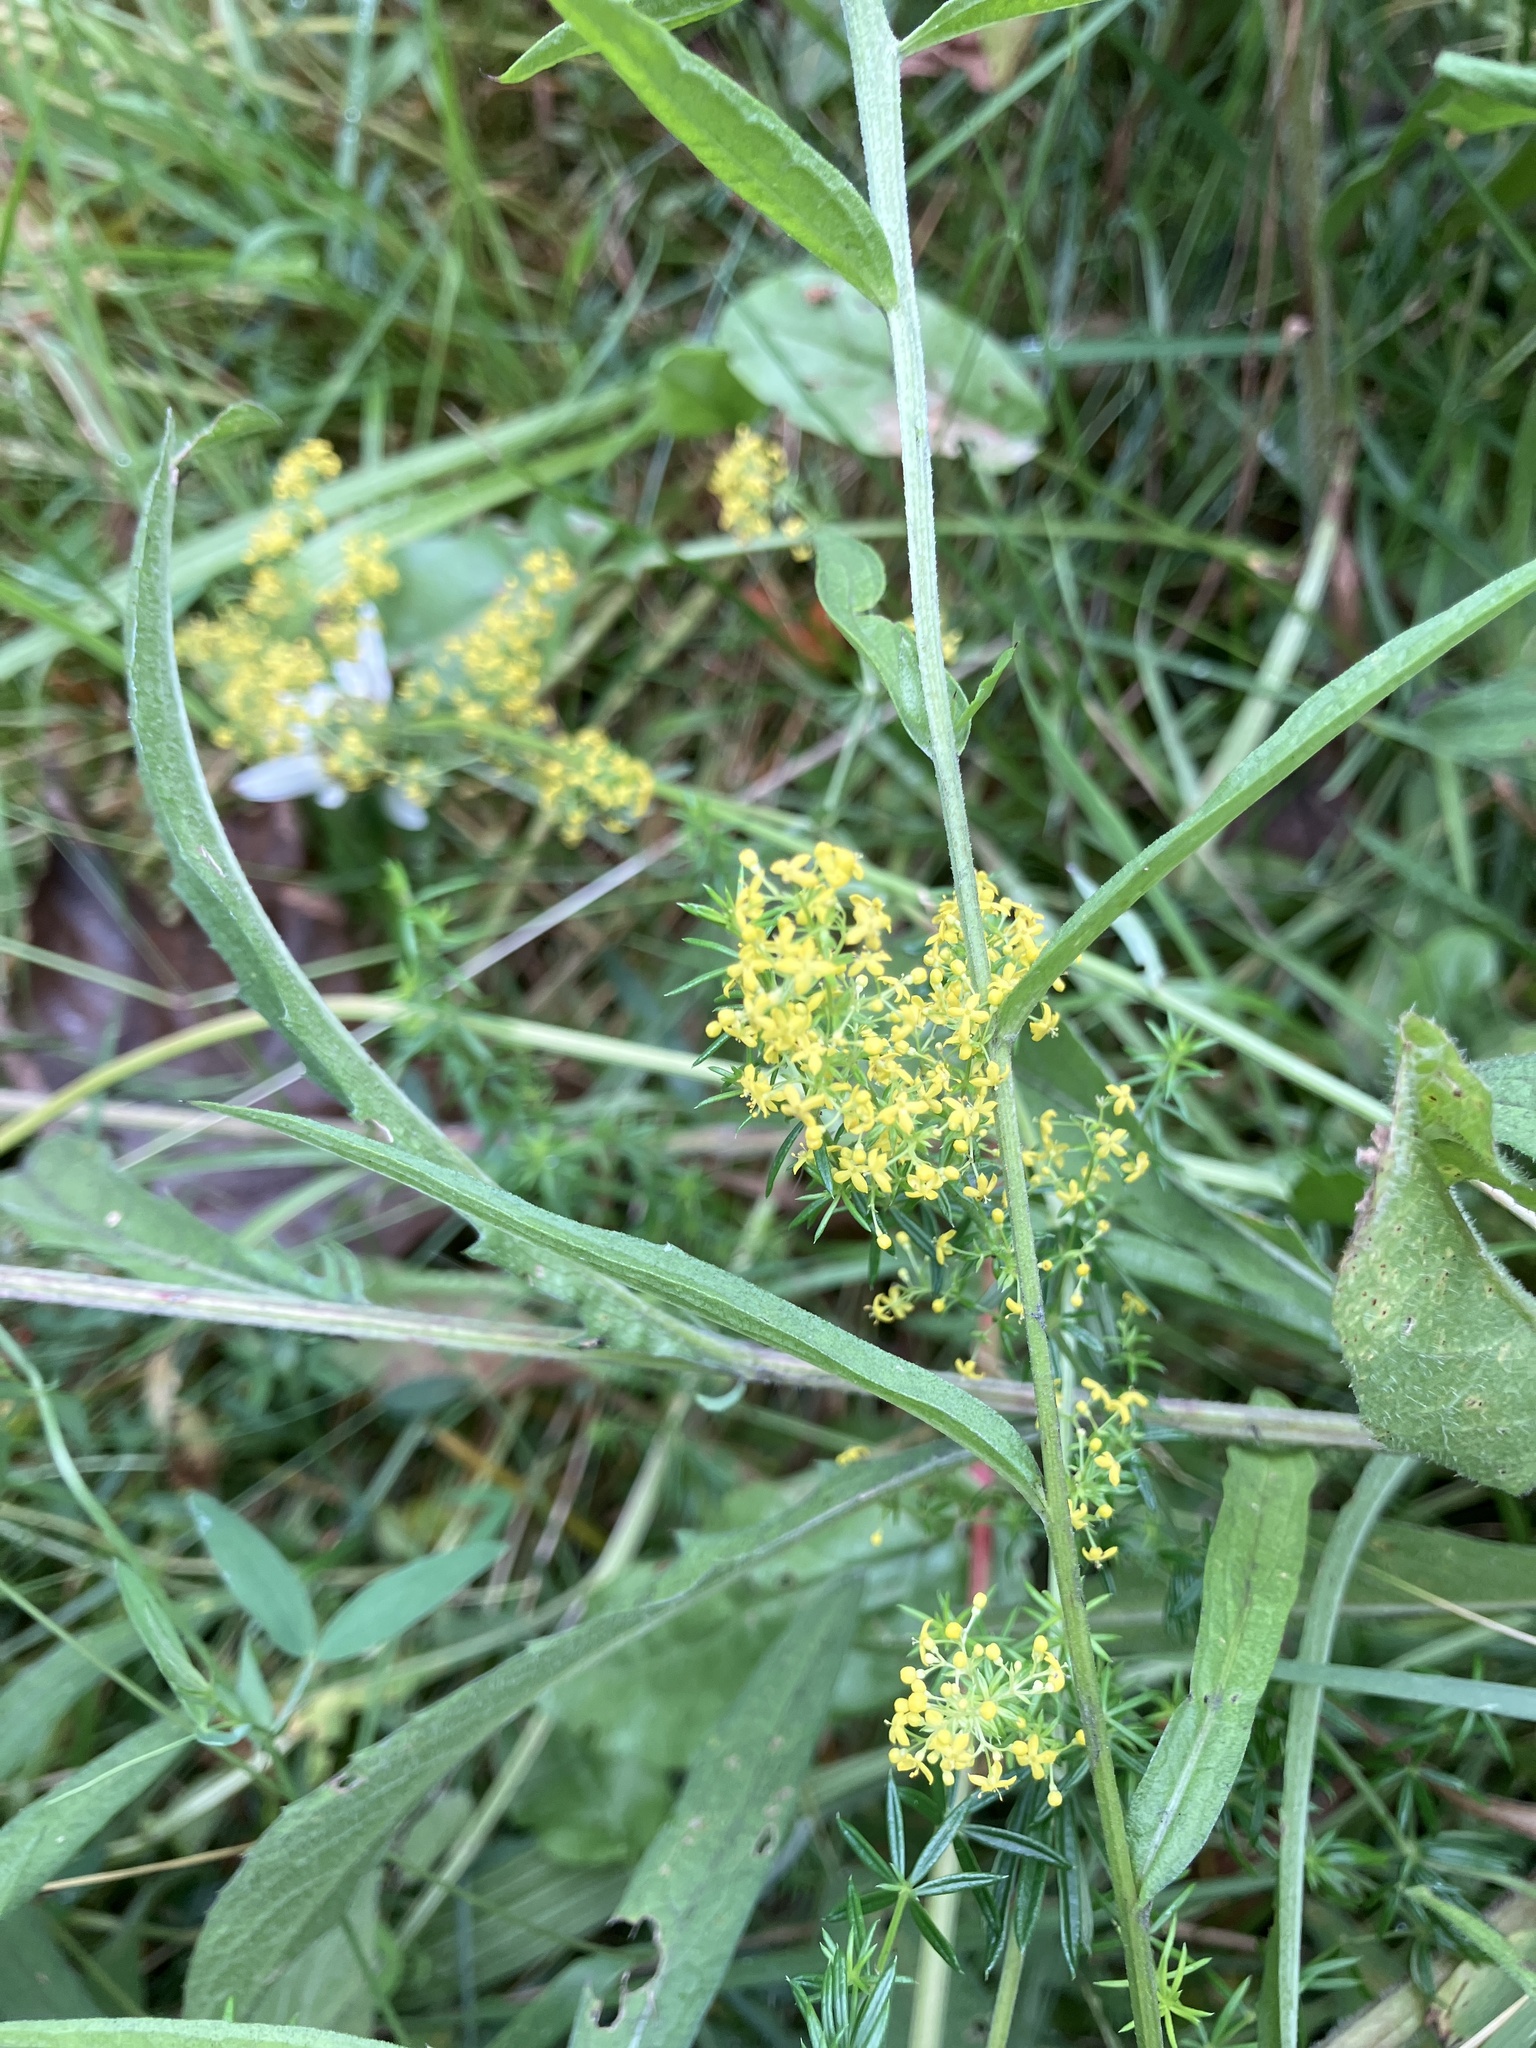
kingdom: Plantae
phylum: Tracheophyta
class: Magnoliopsida
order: Gentianales
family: Rubiaceae
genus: Galium
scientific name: Galium verum
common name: Lady's bedstraw
